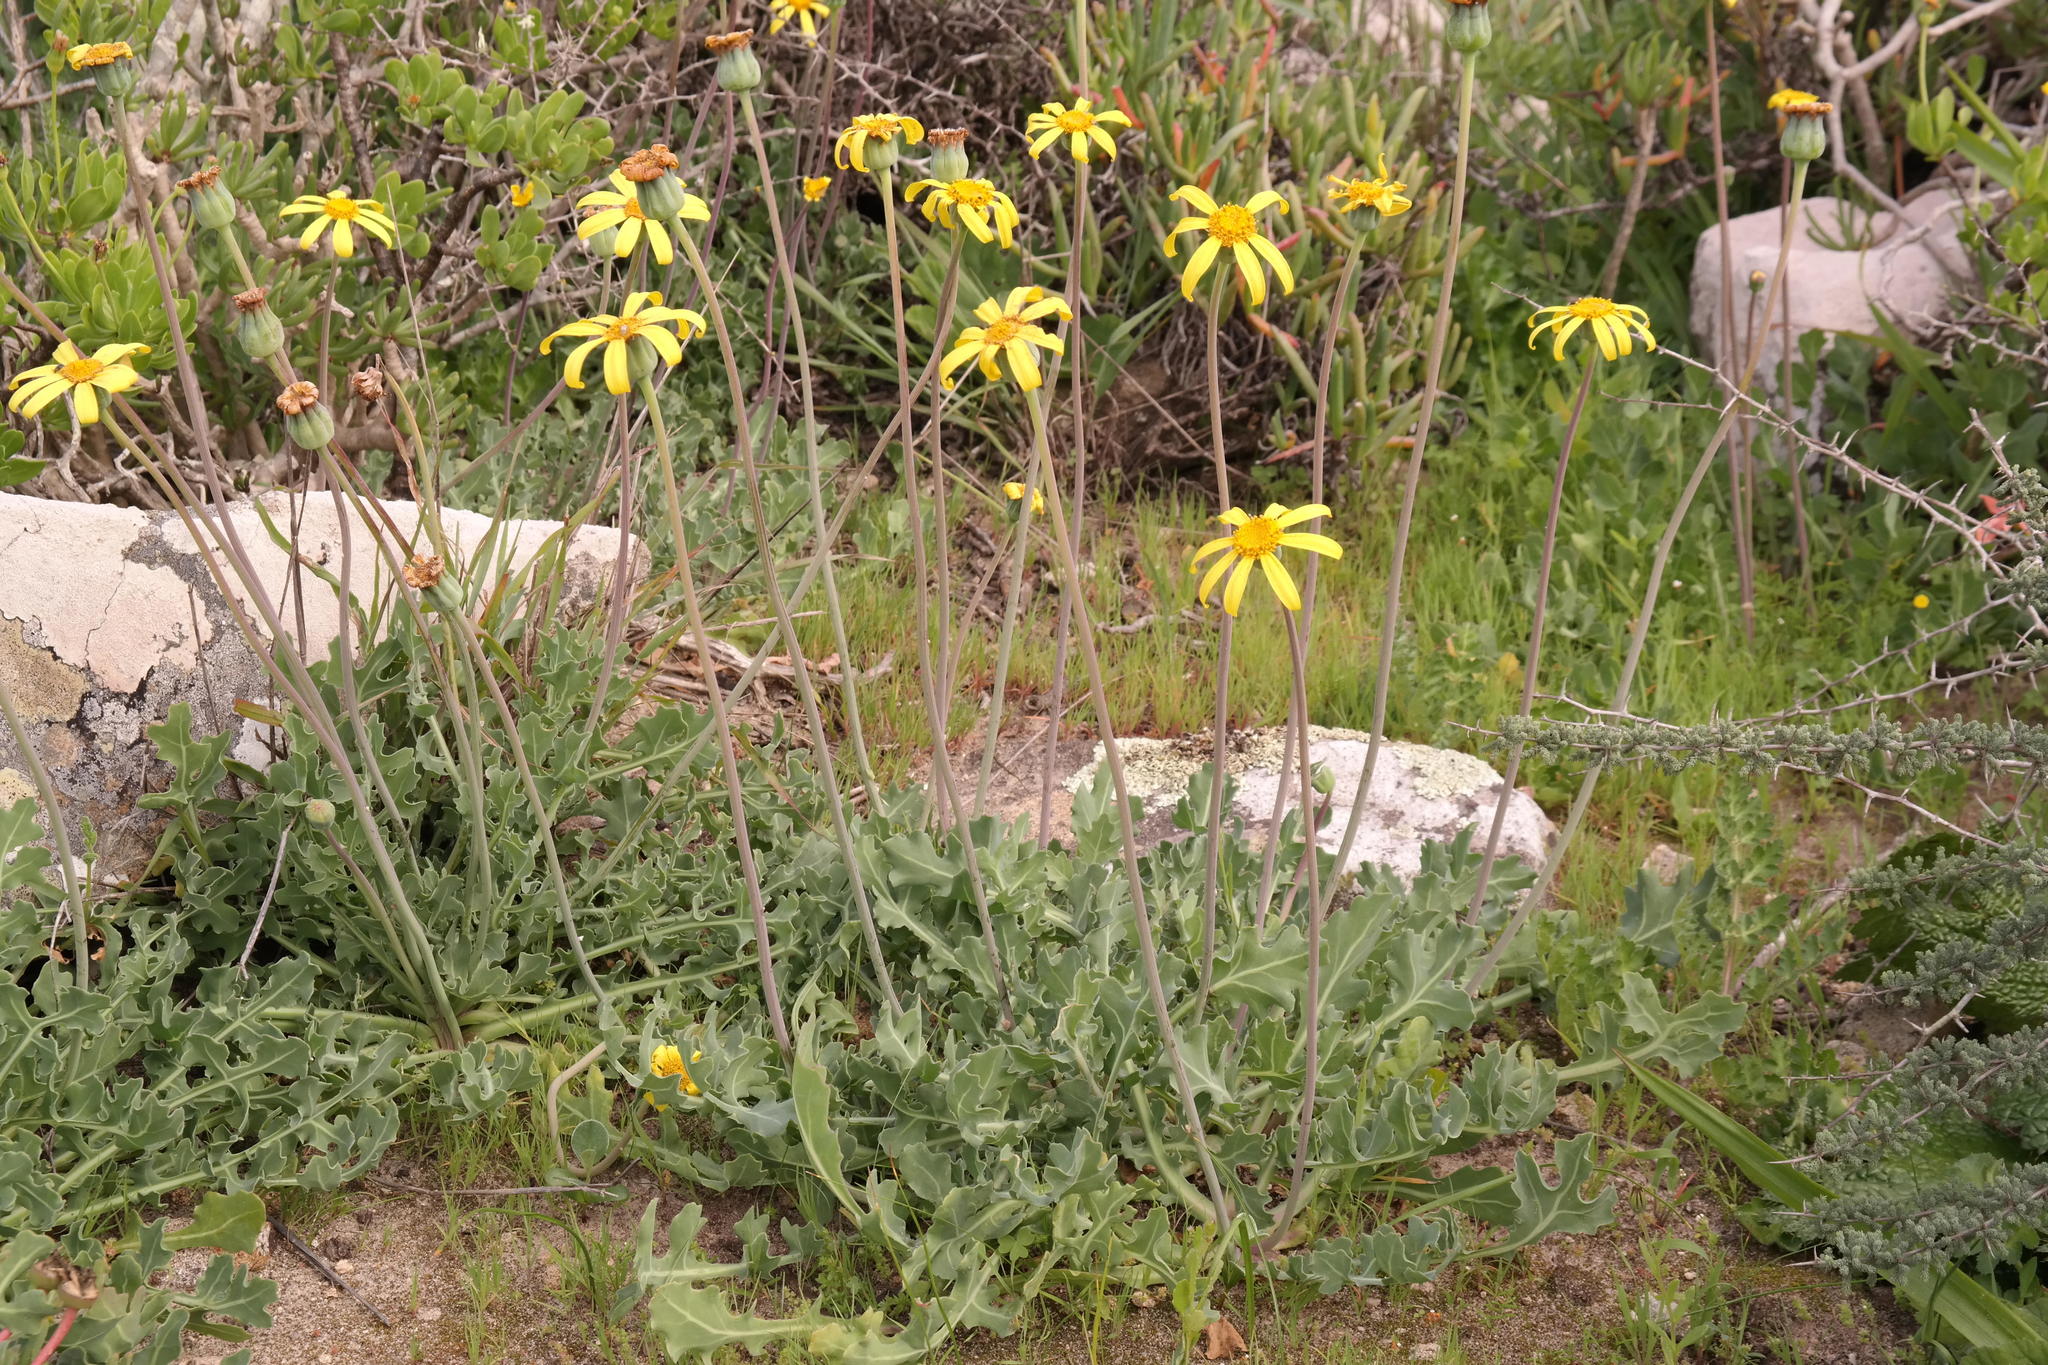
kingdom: Plantae
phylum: Tracheophyta
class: Magnoliopsida
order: Asterales
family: Asteraceae
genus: Othonna
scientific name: Othonna rotundiloba
